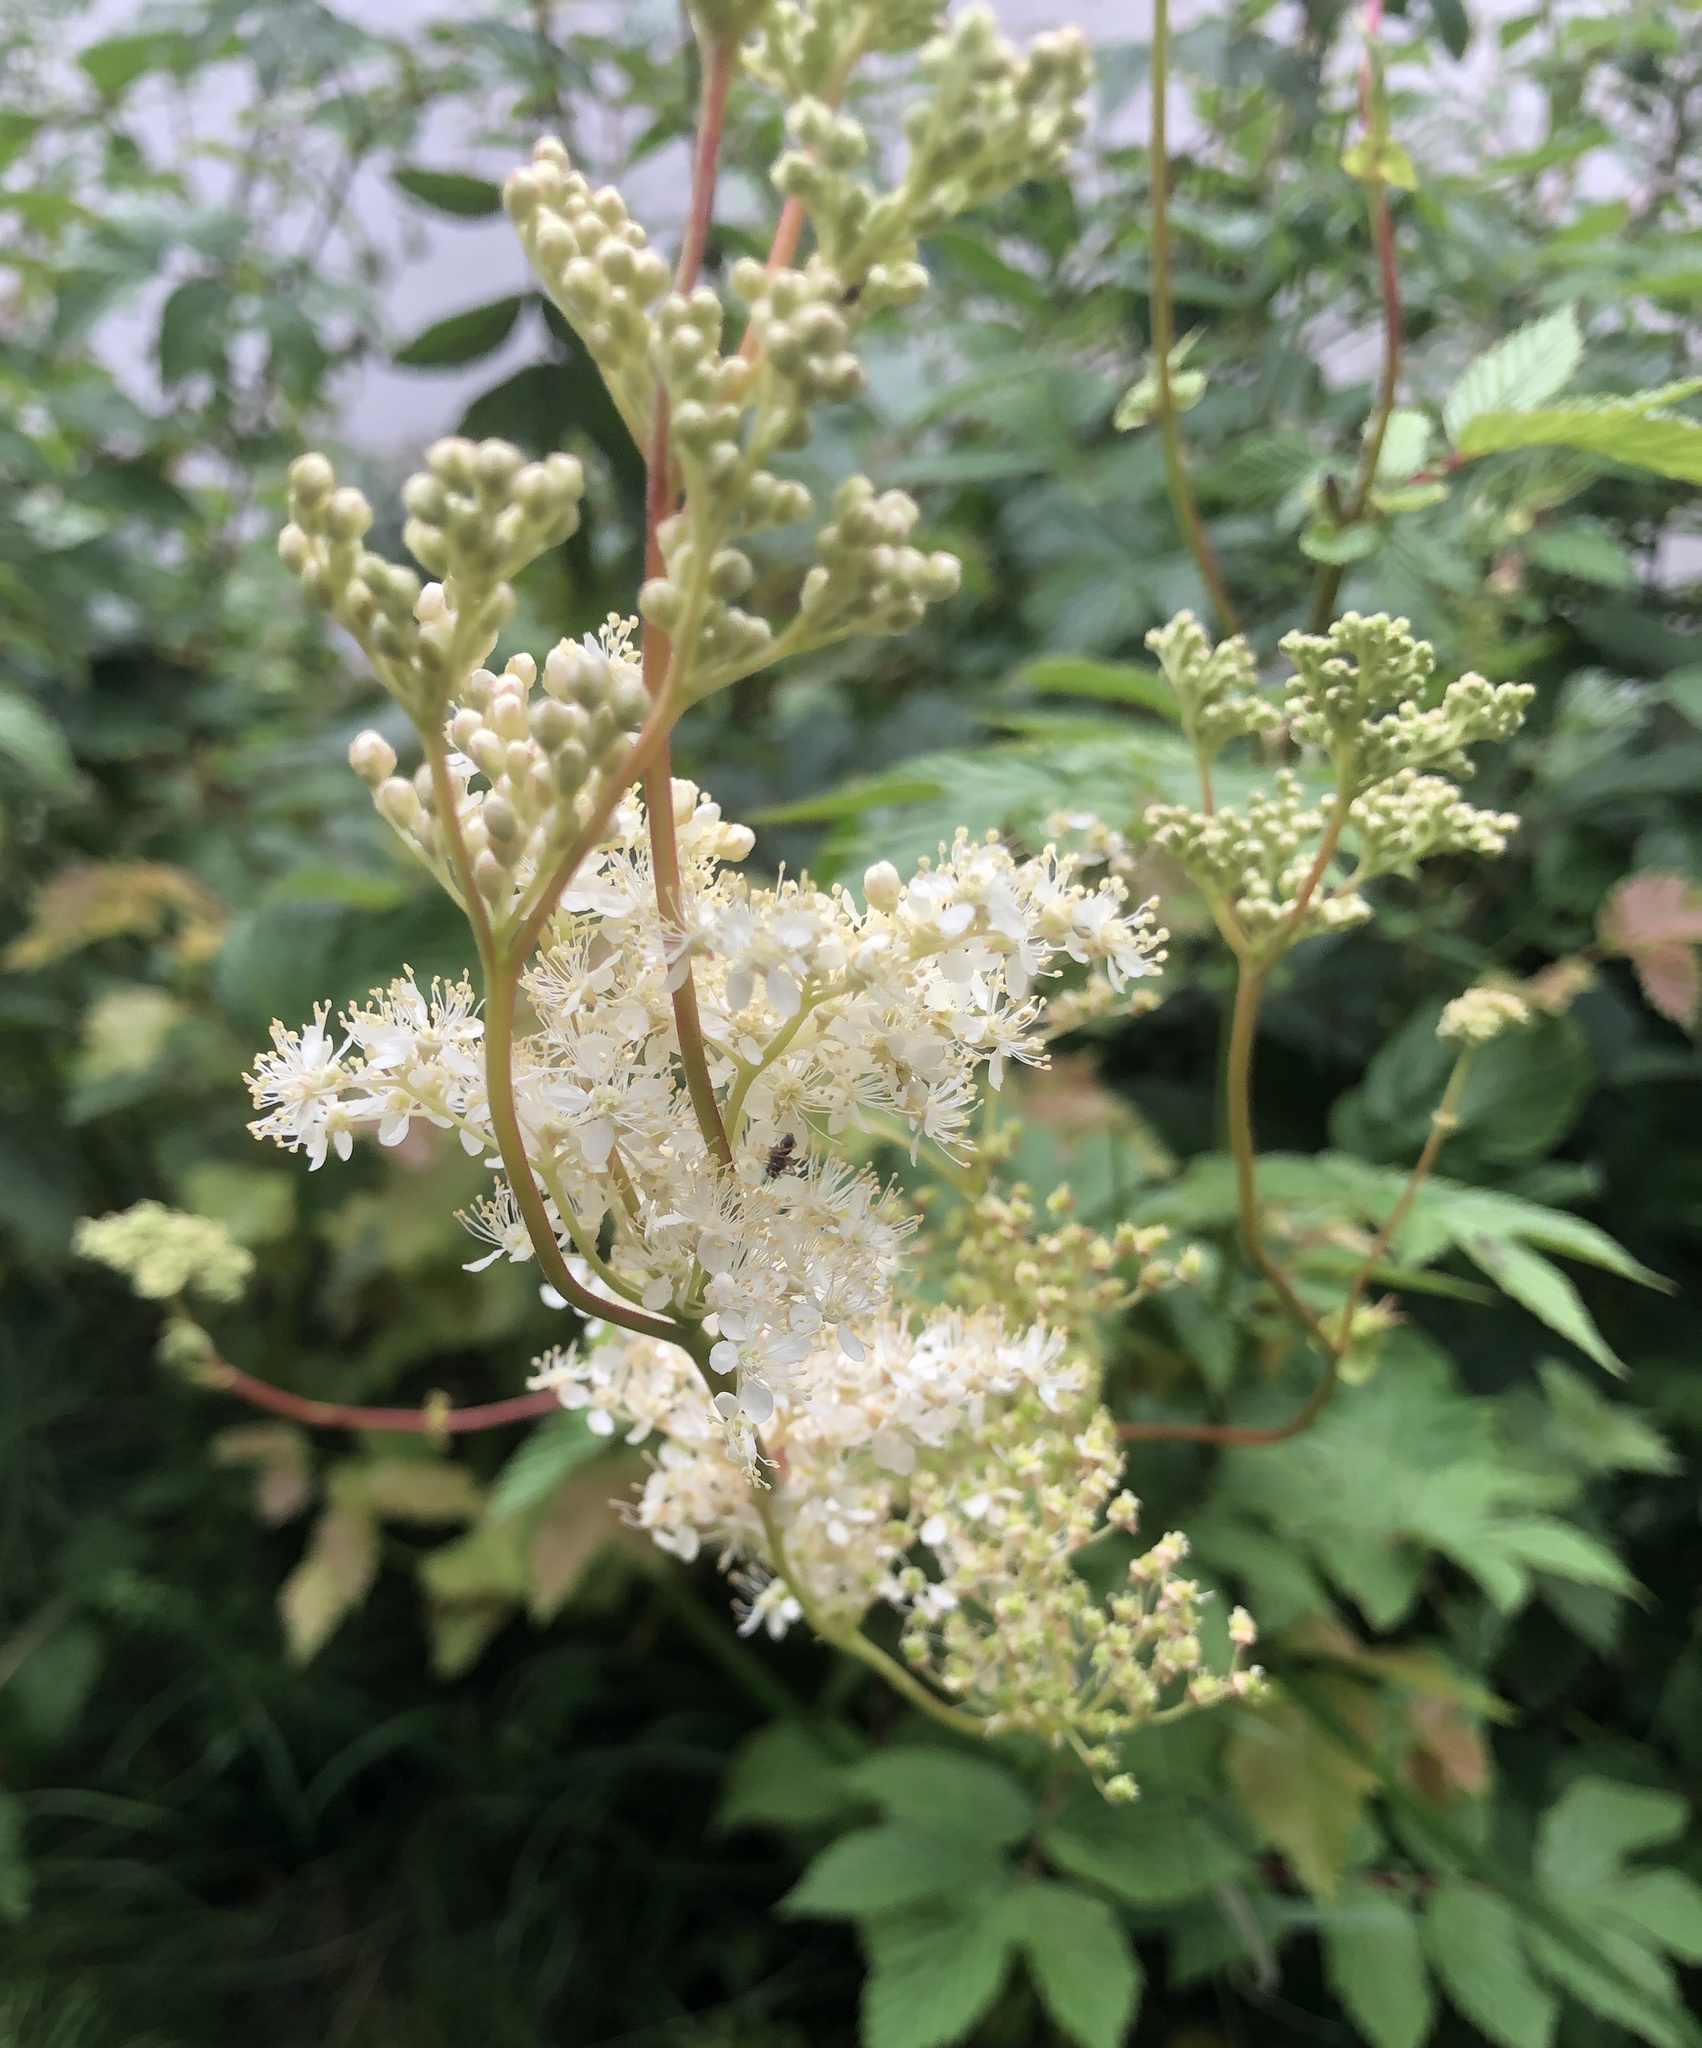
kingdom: Plantae
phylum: Tracheophyta
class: Magnoliopsida
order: Rosales
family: Rosaceae
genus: Filipendula
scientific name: Filipendula ulmaria
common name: Meadowsweet
